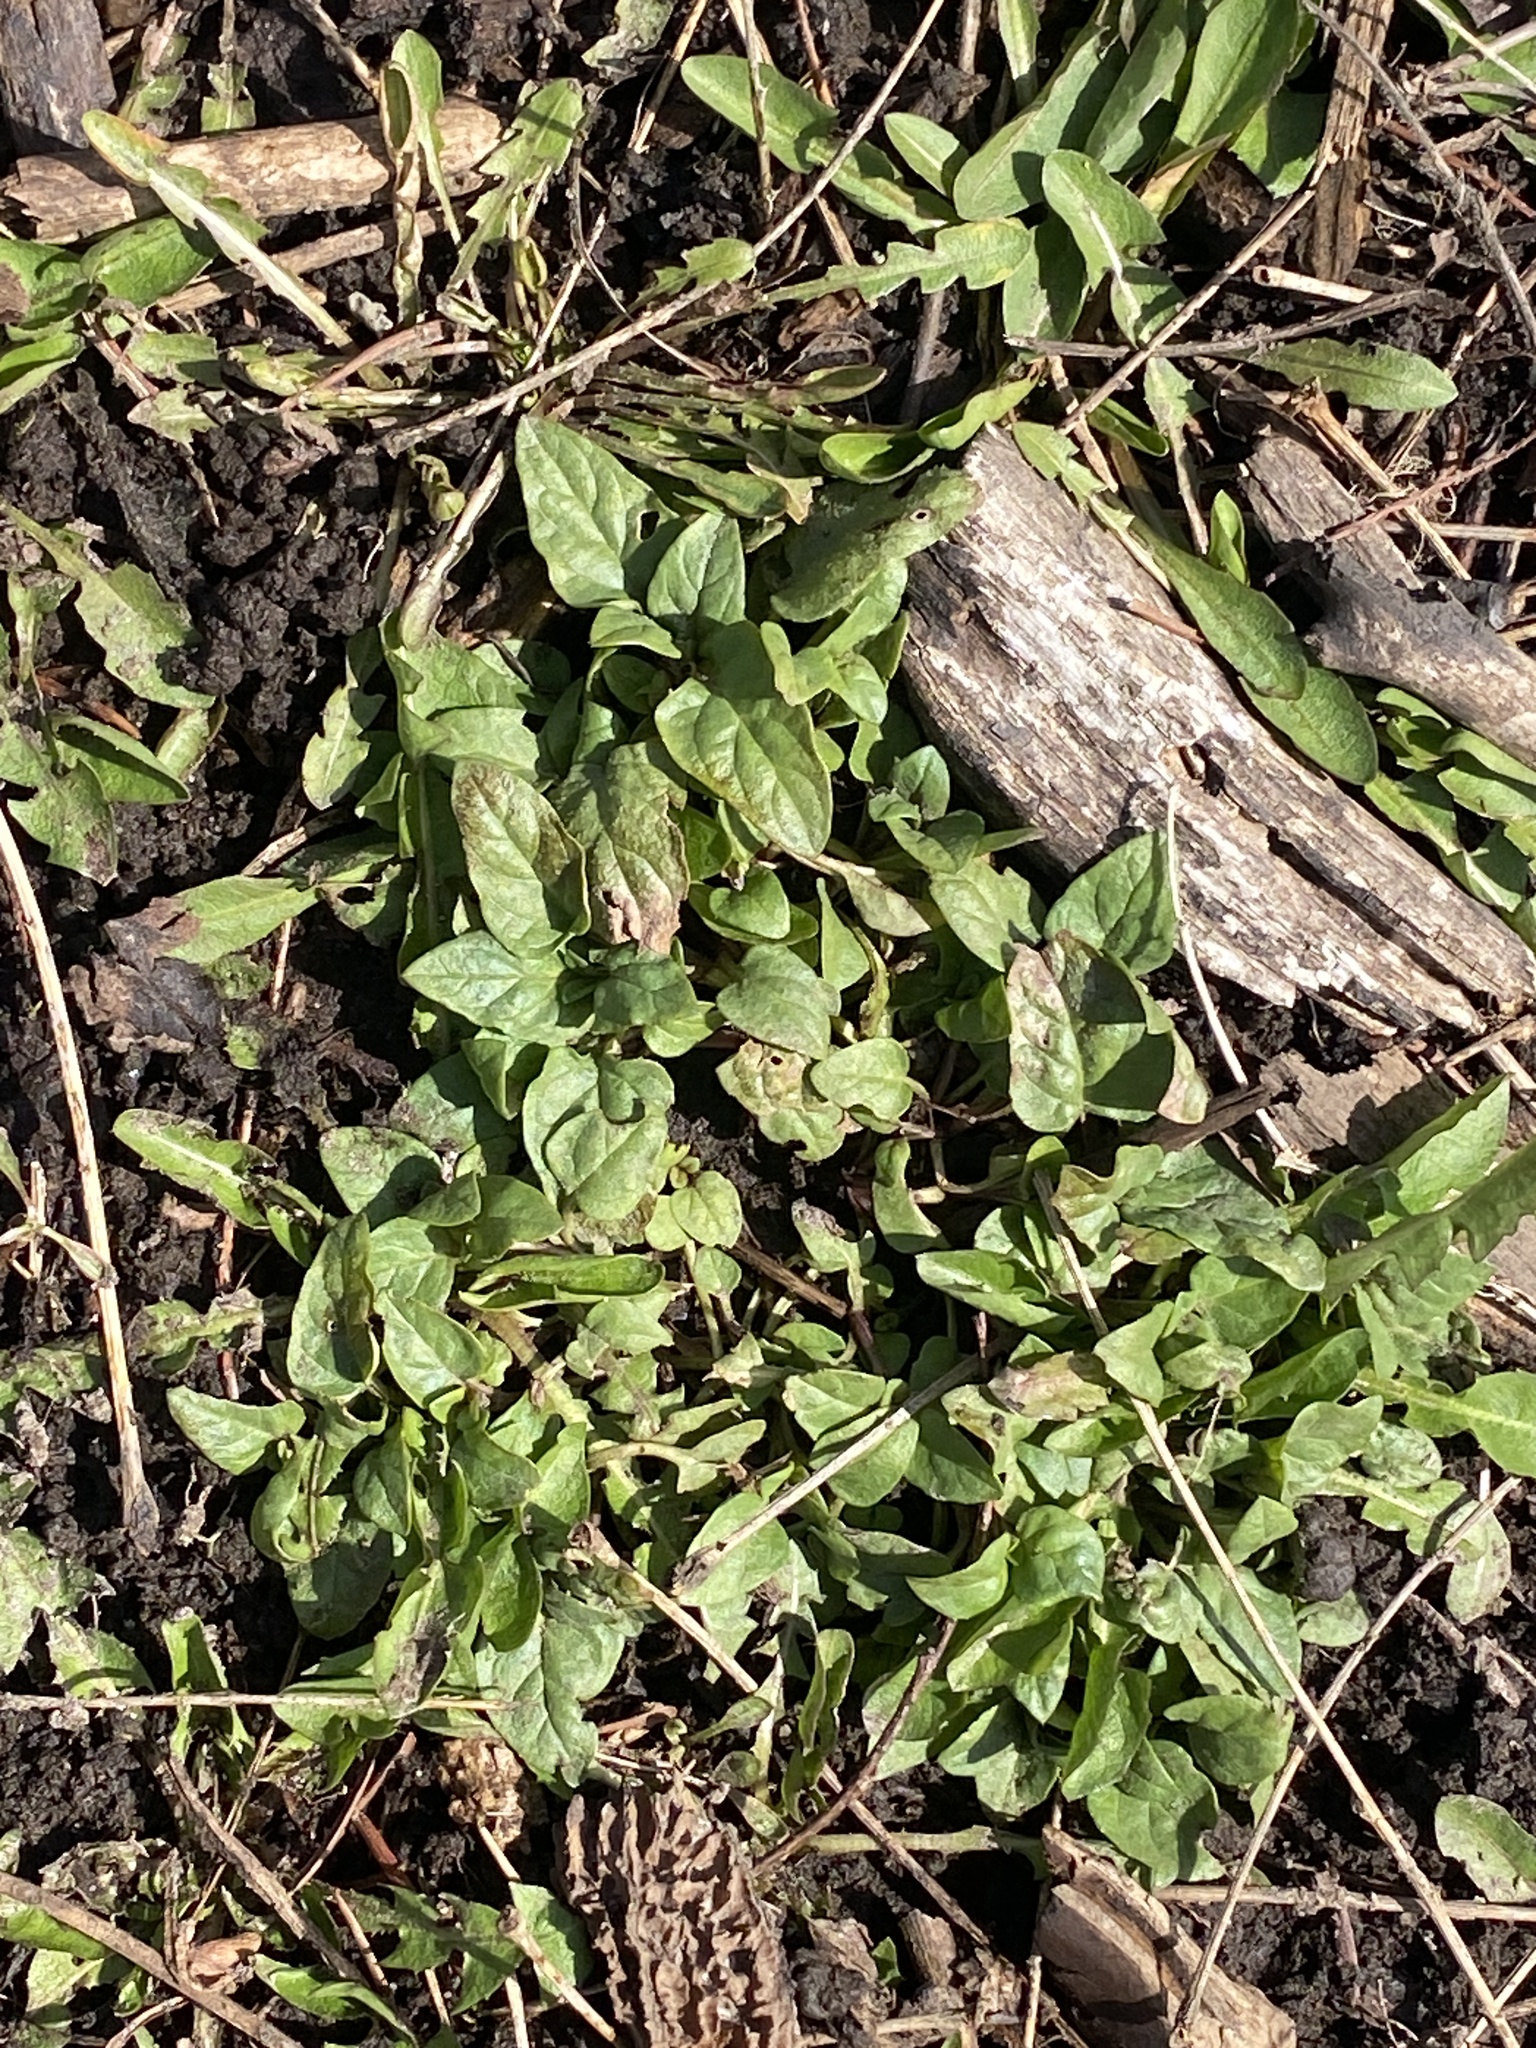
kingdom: Plantae
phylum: Tracheophyta
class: Magnoliopsida
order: Lamiales
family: Lamiaceae
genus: Prunella
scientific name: Prunella vulgaris
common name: Heal-all
